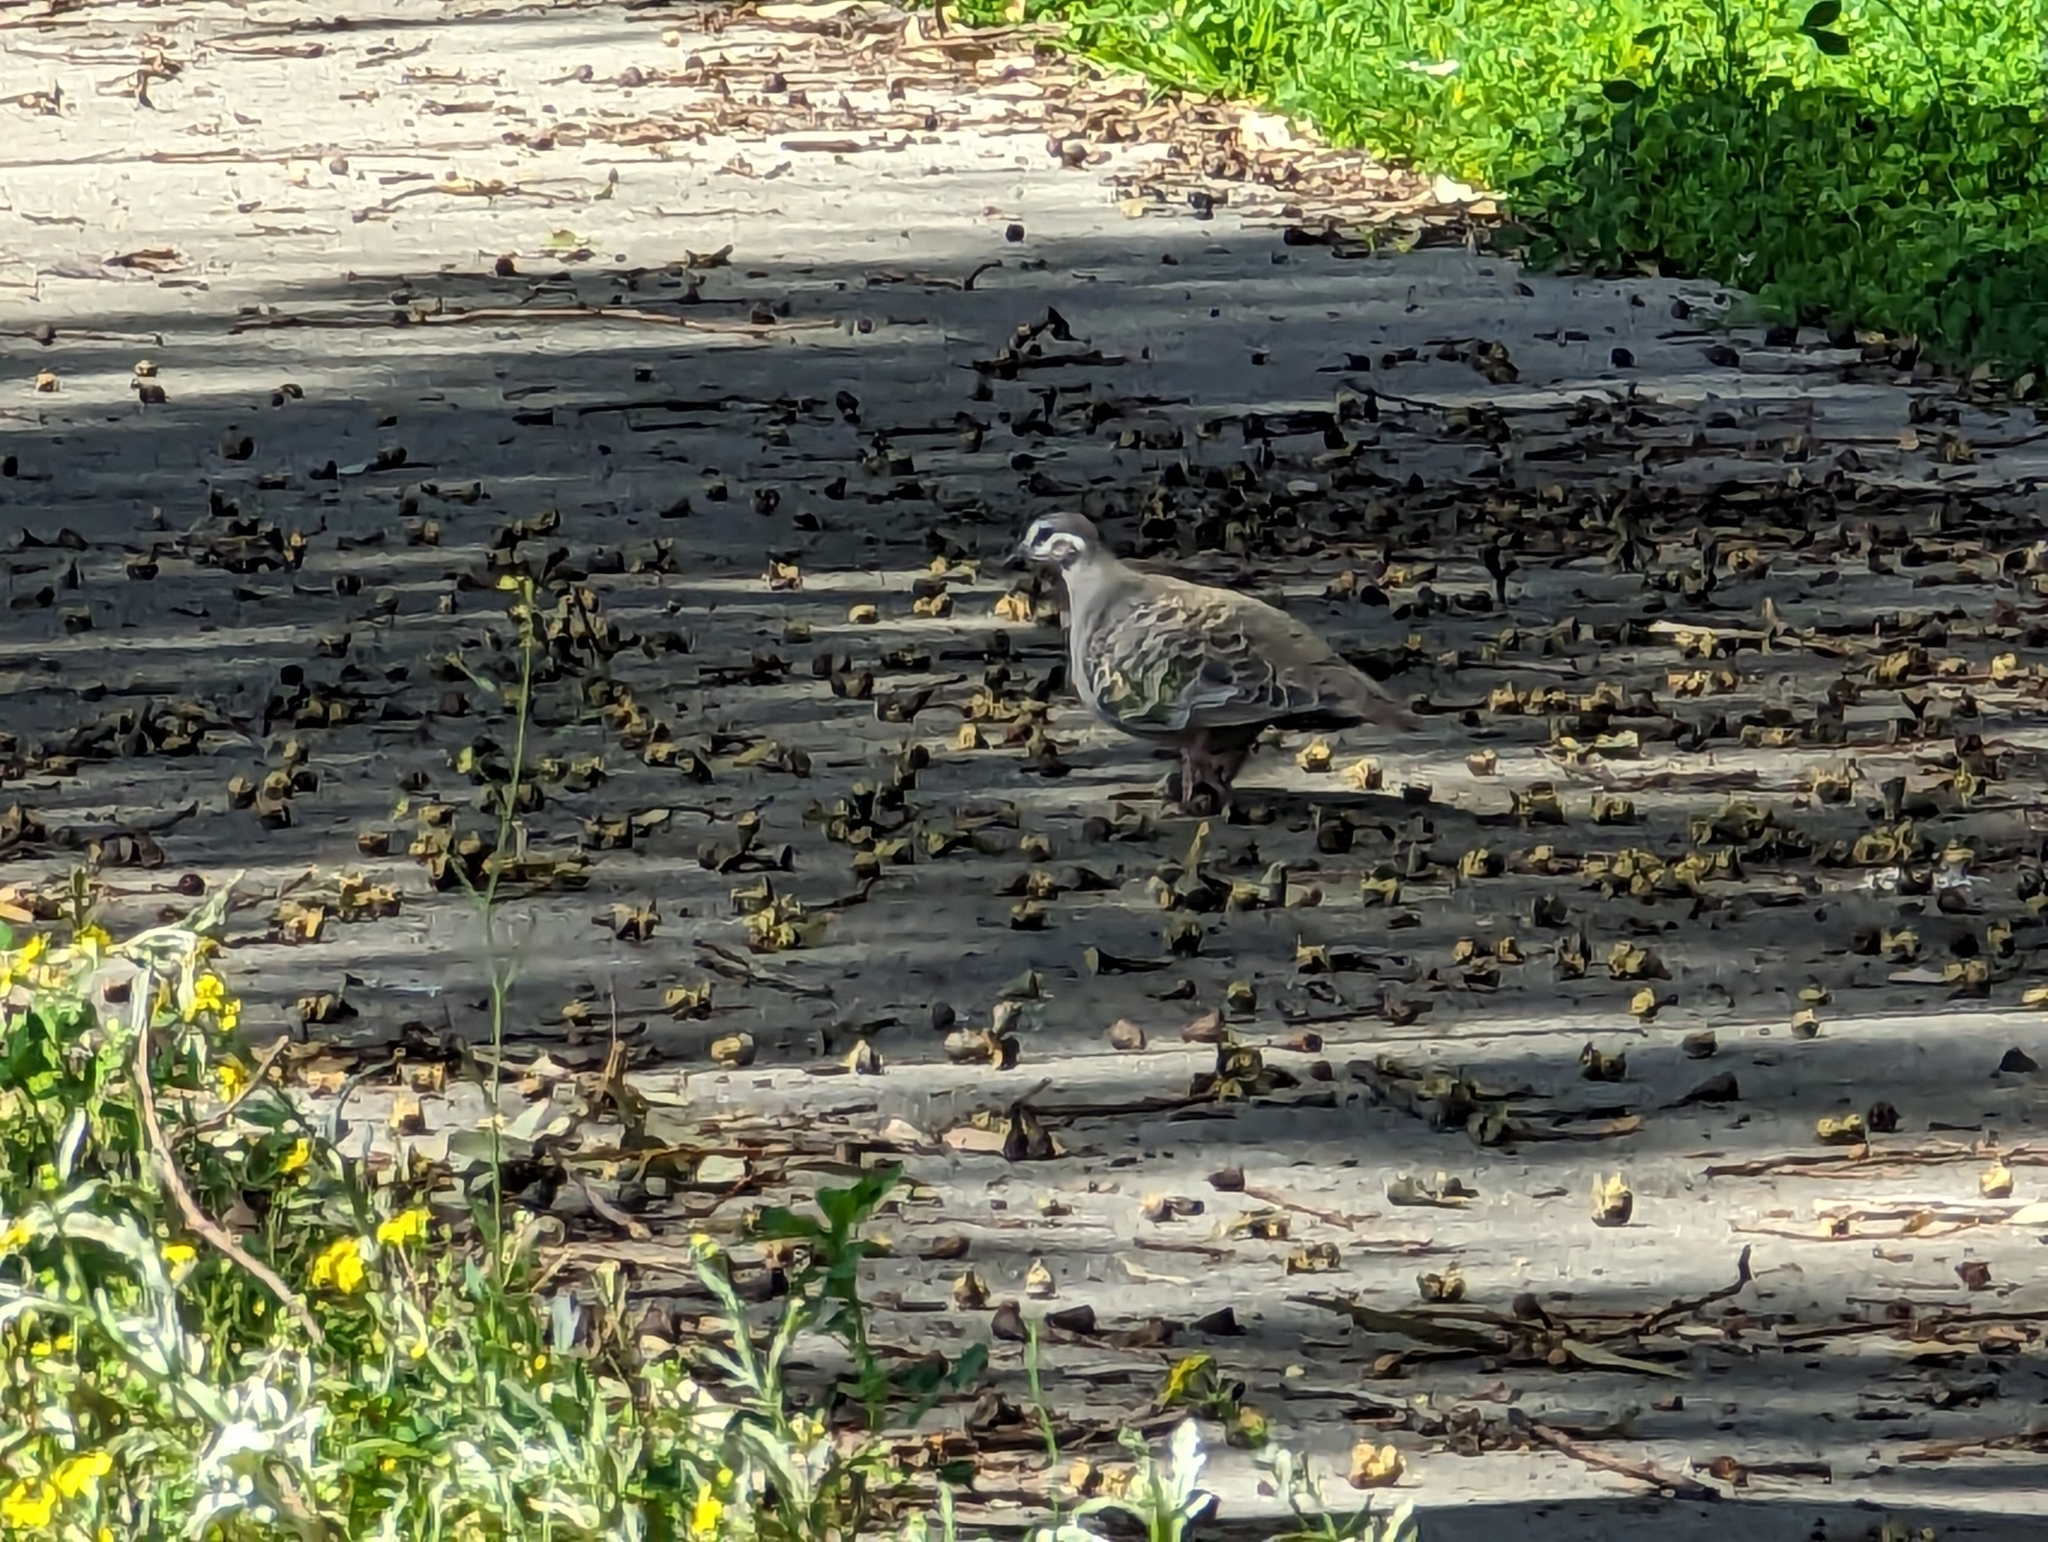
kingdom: Animalia
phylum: Chordata
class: Aves
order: Columbiformes
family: Columbidae
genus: Phaps
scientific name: Phaps chalcoptera
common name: Common bronzewing
